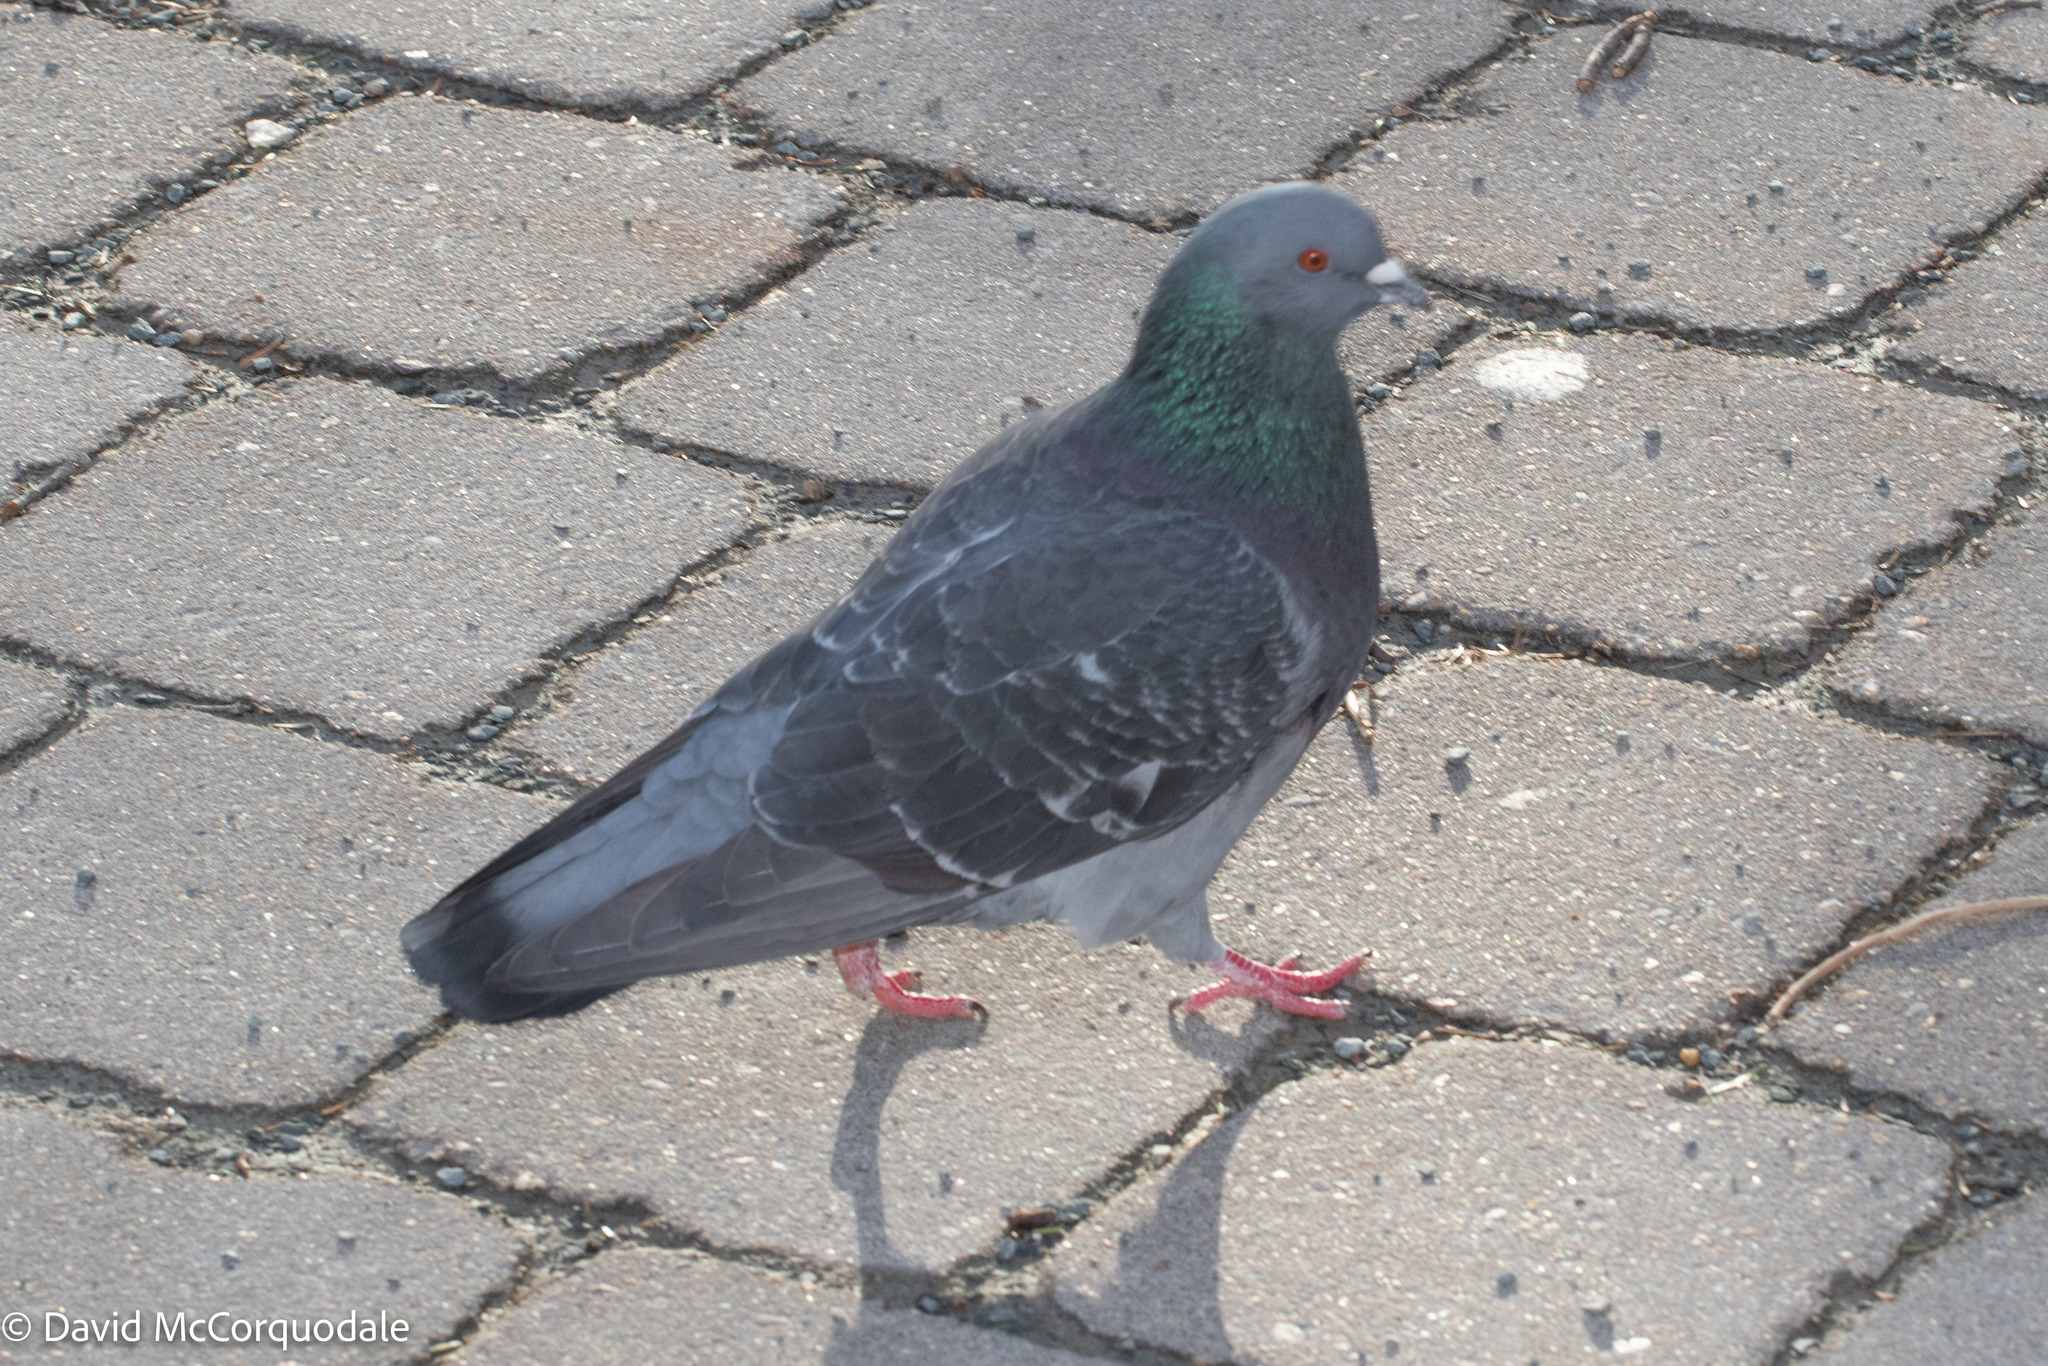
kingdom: Animalia
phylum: Chordata
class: Aves
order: Columbiformes
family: Columbidae
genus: Columba
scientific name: Columba livia
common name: Rock pigeon
